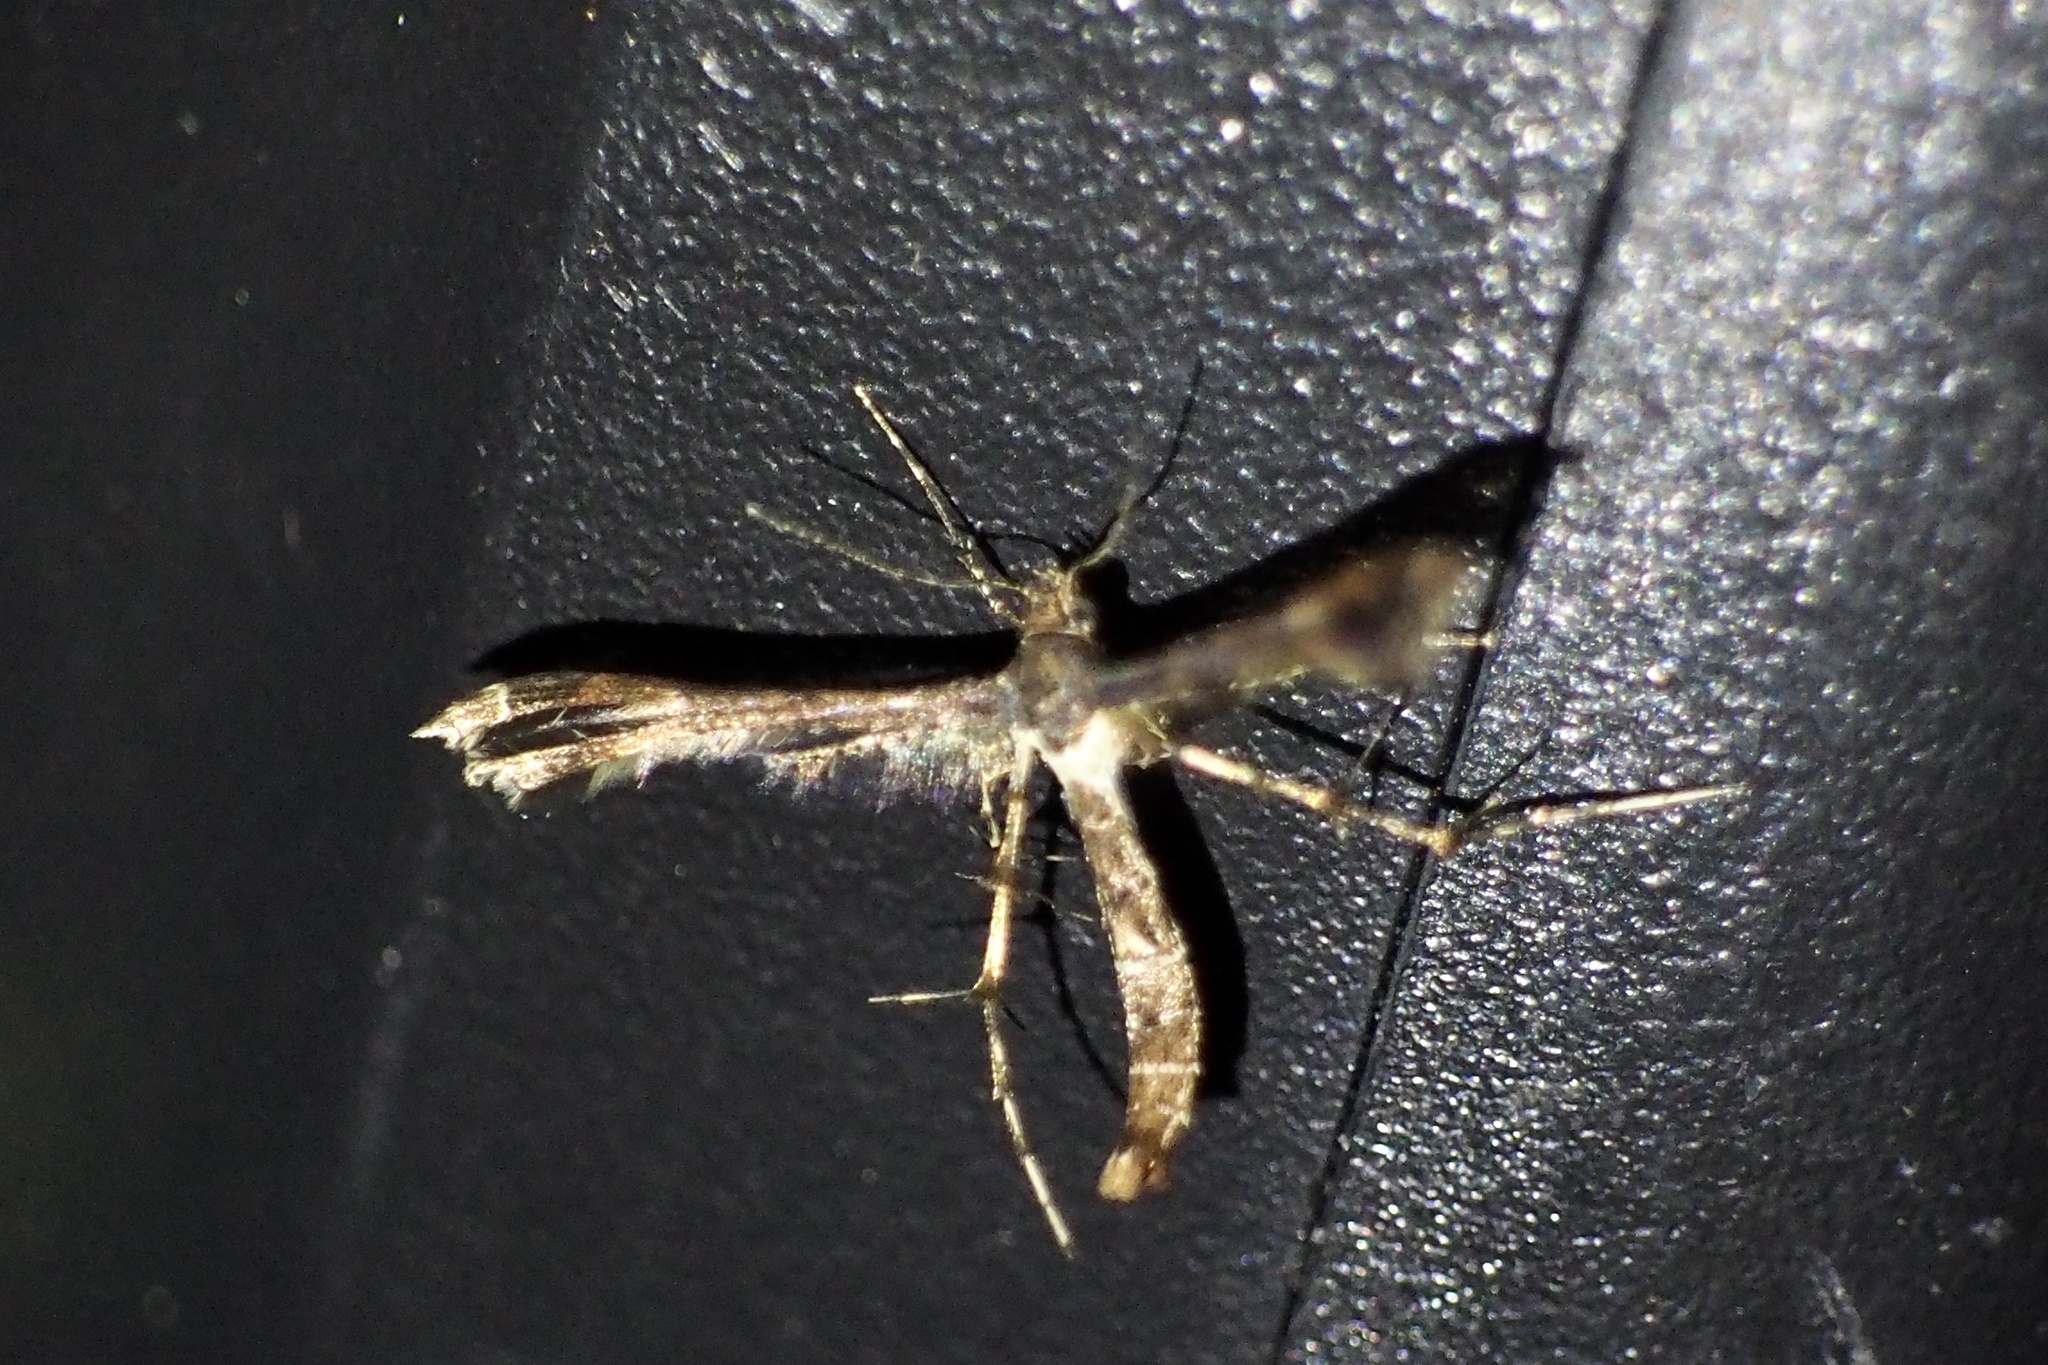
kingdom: Animalia
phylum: Arthropoda
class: Insecta
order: Lepidoptera
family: Pterophoridae
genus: Nippoptilia
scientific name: Nippoptilia vitis
